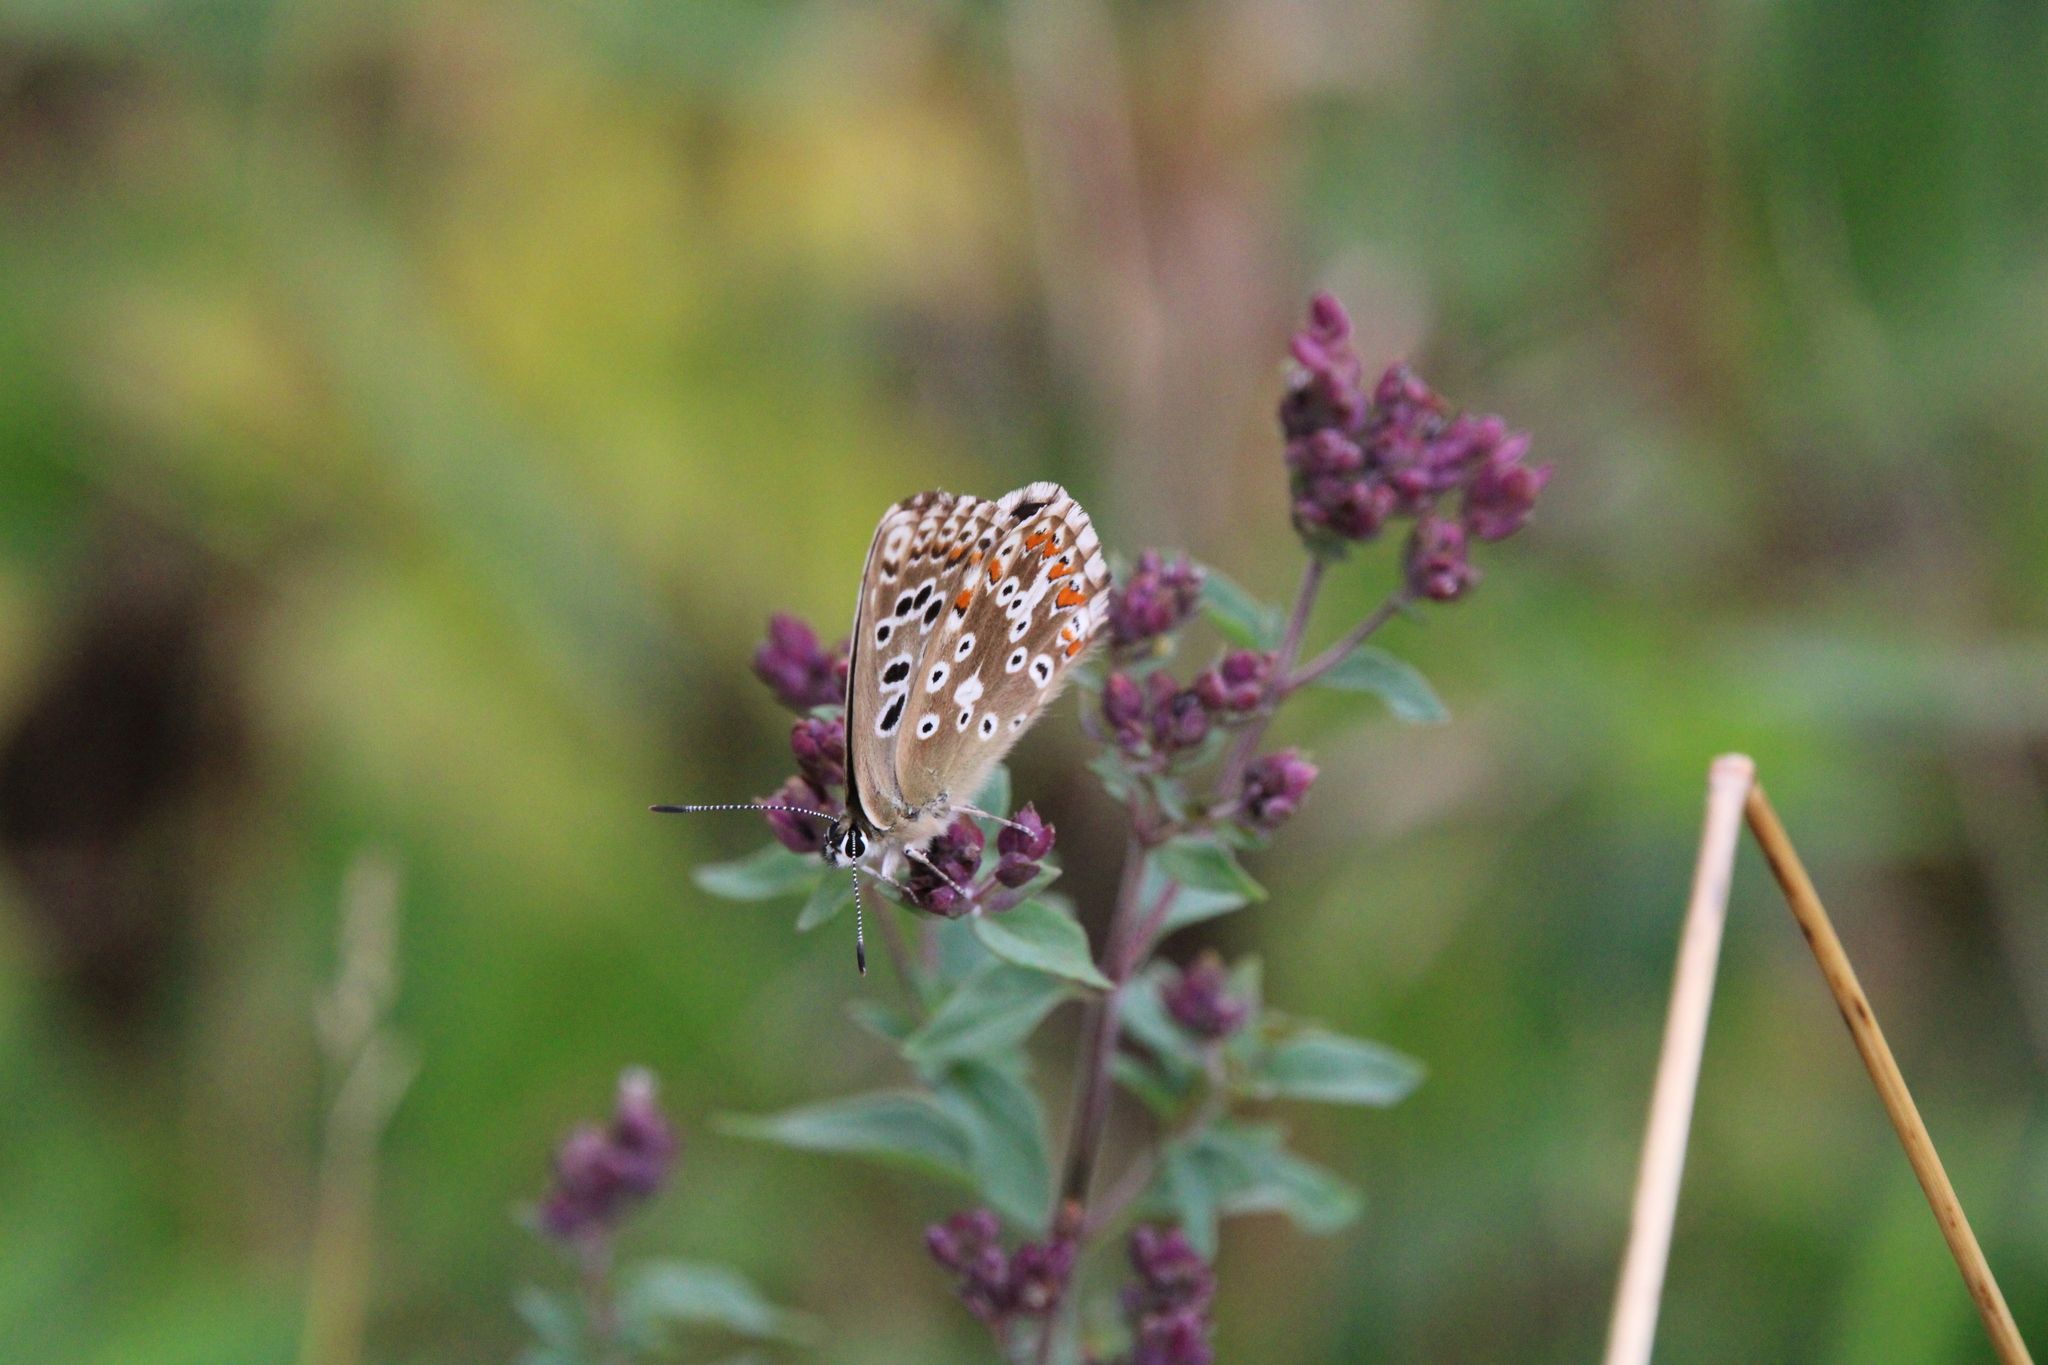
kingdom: Animalia
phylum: Arthropoda
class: Insecta
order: Lepidoptera
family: Lycaenidae
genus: Lysandra
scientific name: Lysandra coridon
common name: Chalkhill blue
